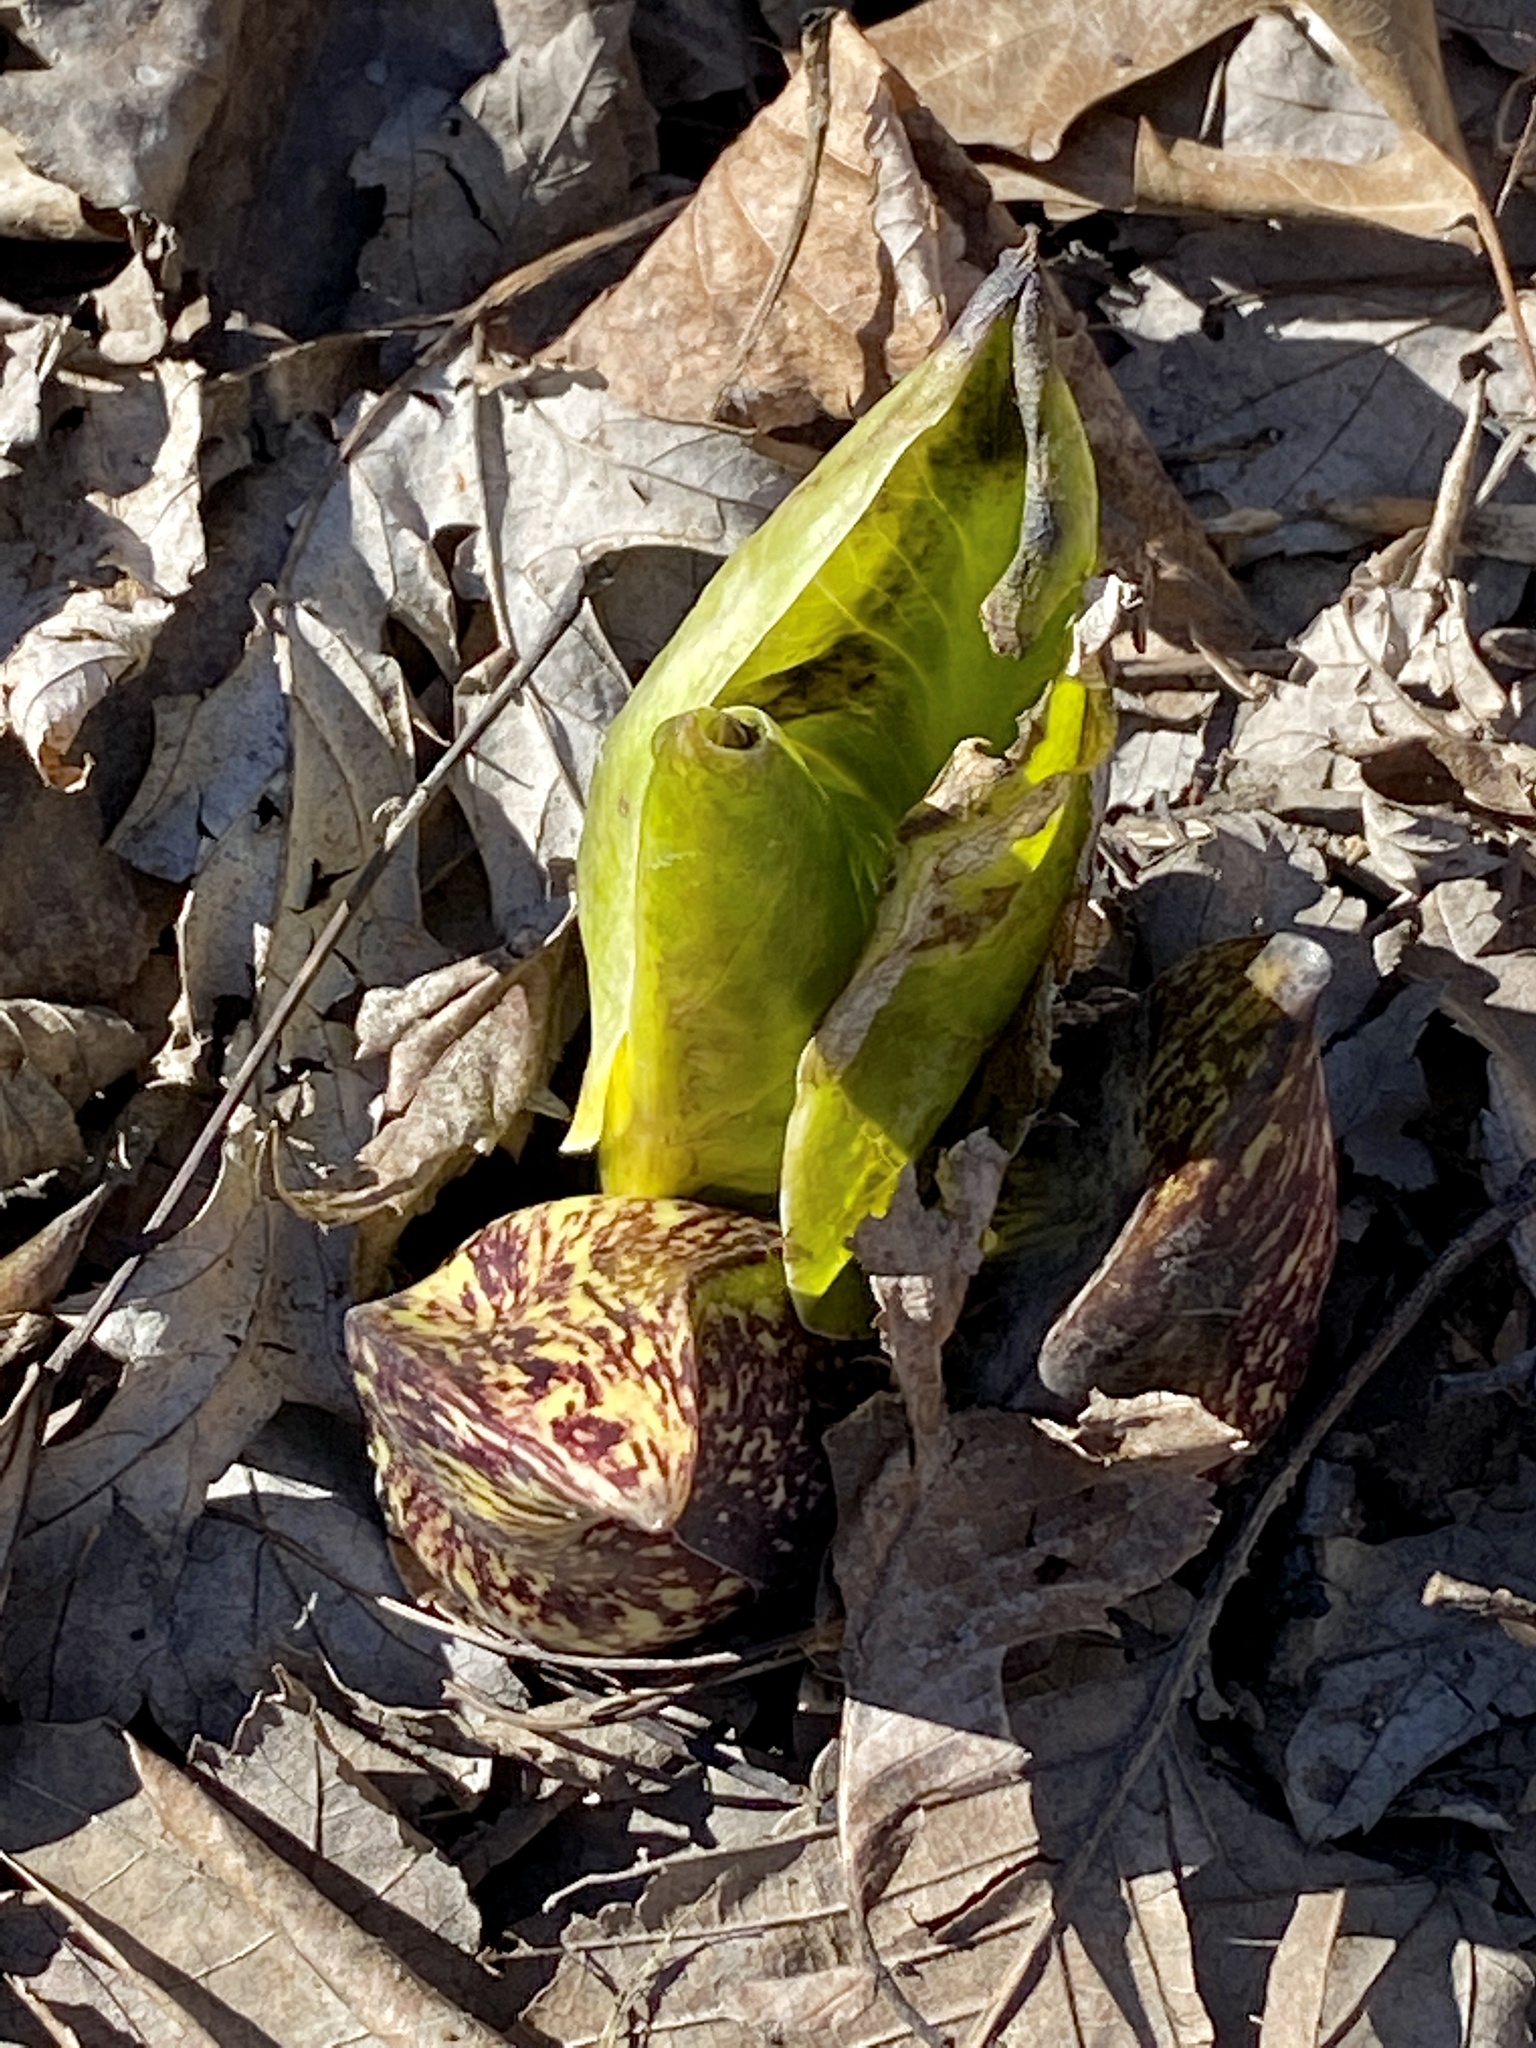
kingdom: Plantae
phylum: Tracheophyta
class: Liliopsida
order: Alismatales
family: Araceae
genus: Symplocarpus
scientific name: Symplocarpus foetidus
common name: Eastern skunk cabbage
